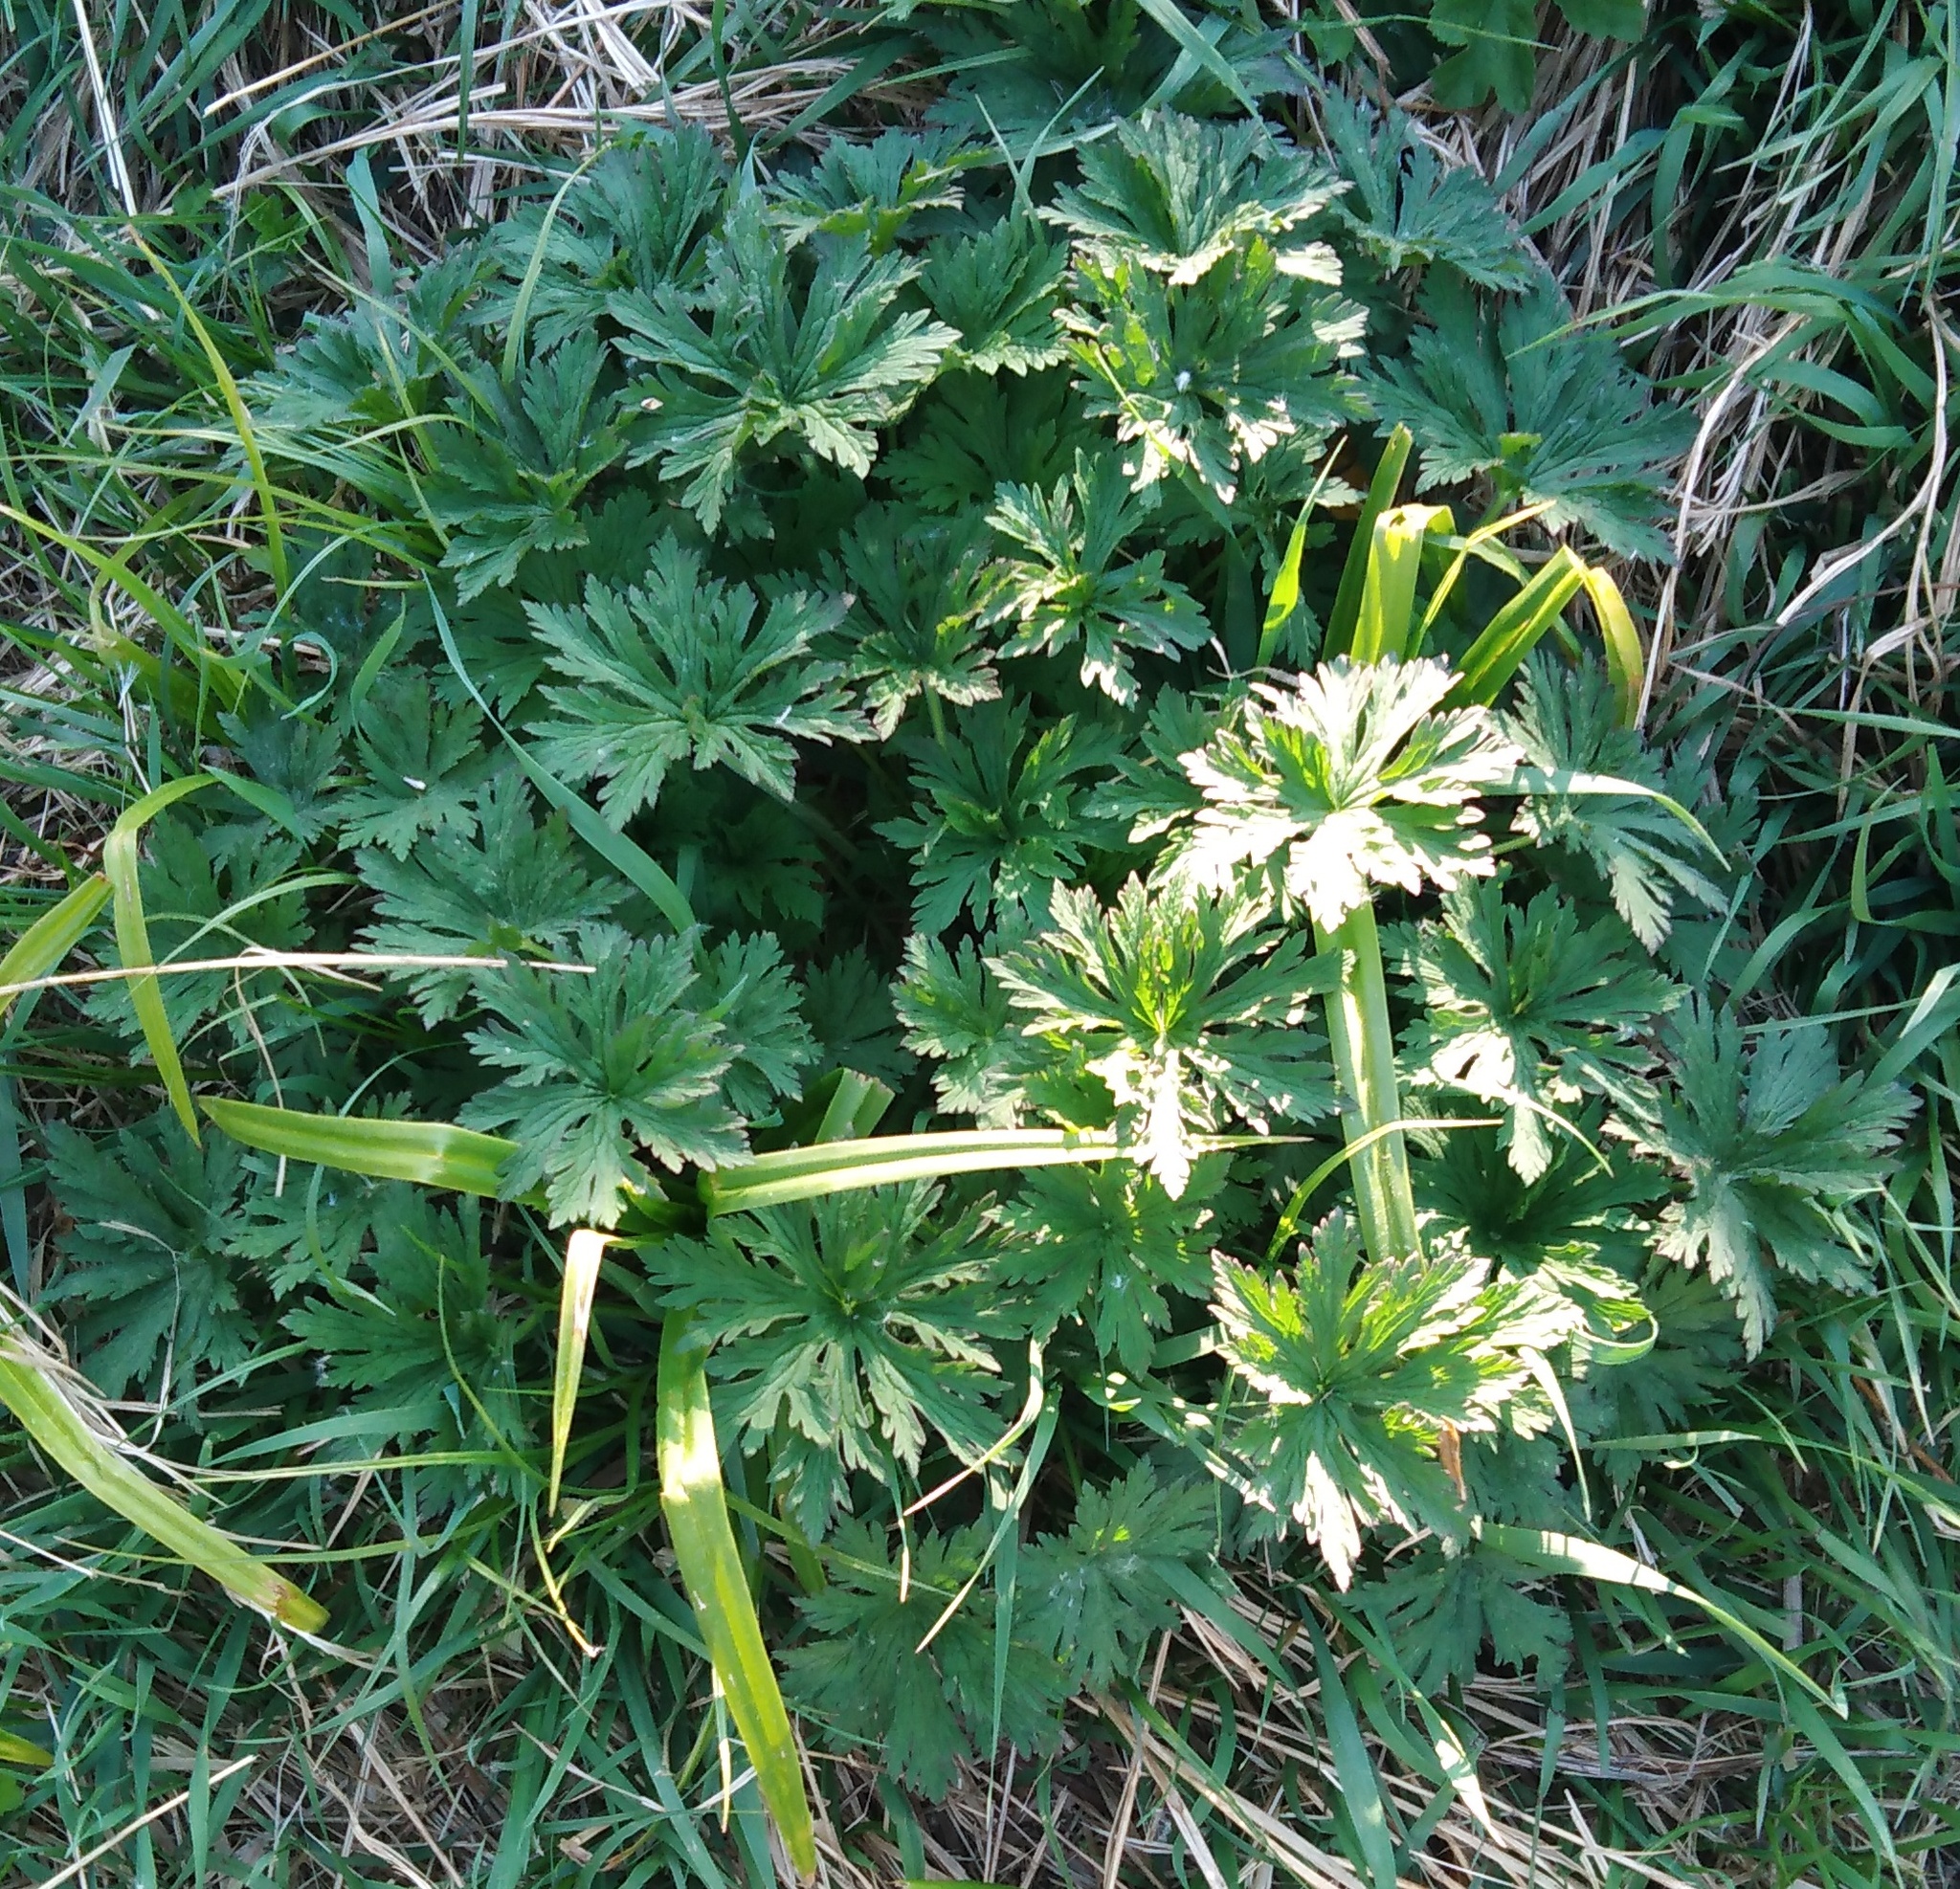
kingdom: Plantae
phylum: Tracheophyta
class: Magnoliopsida
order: Geraniales
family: Geraniaceae
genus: Geranium
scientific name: Geranium pratense
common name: Meadow crane's-bill
